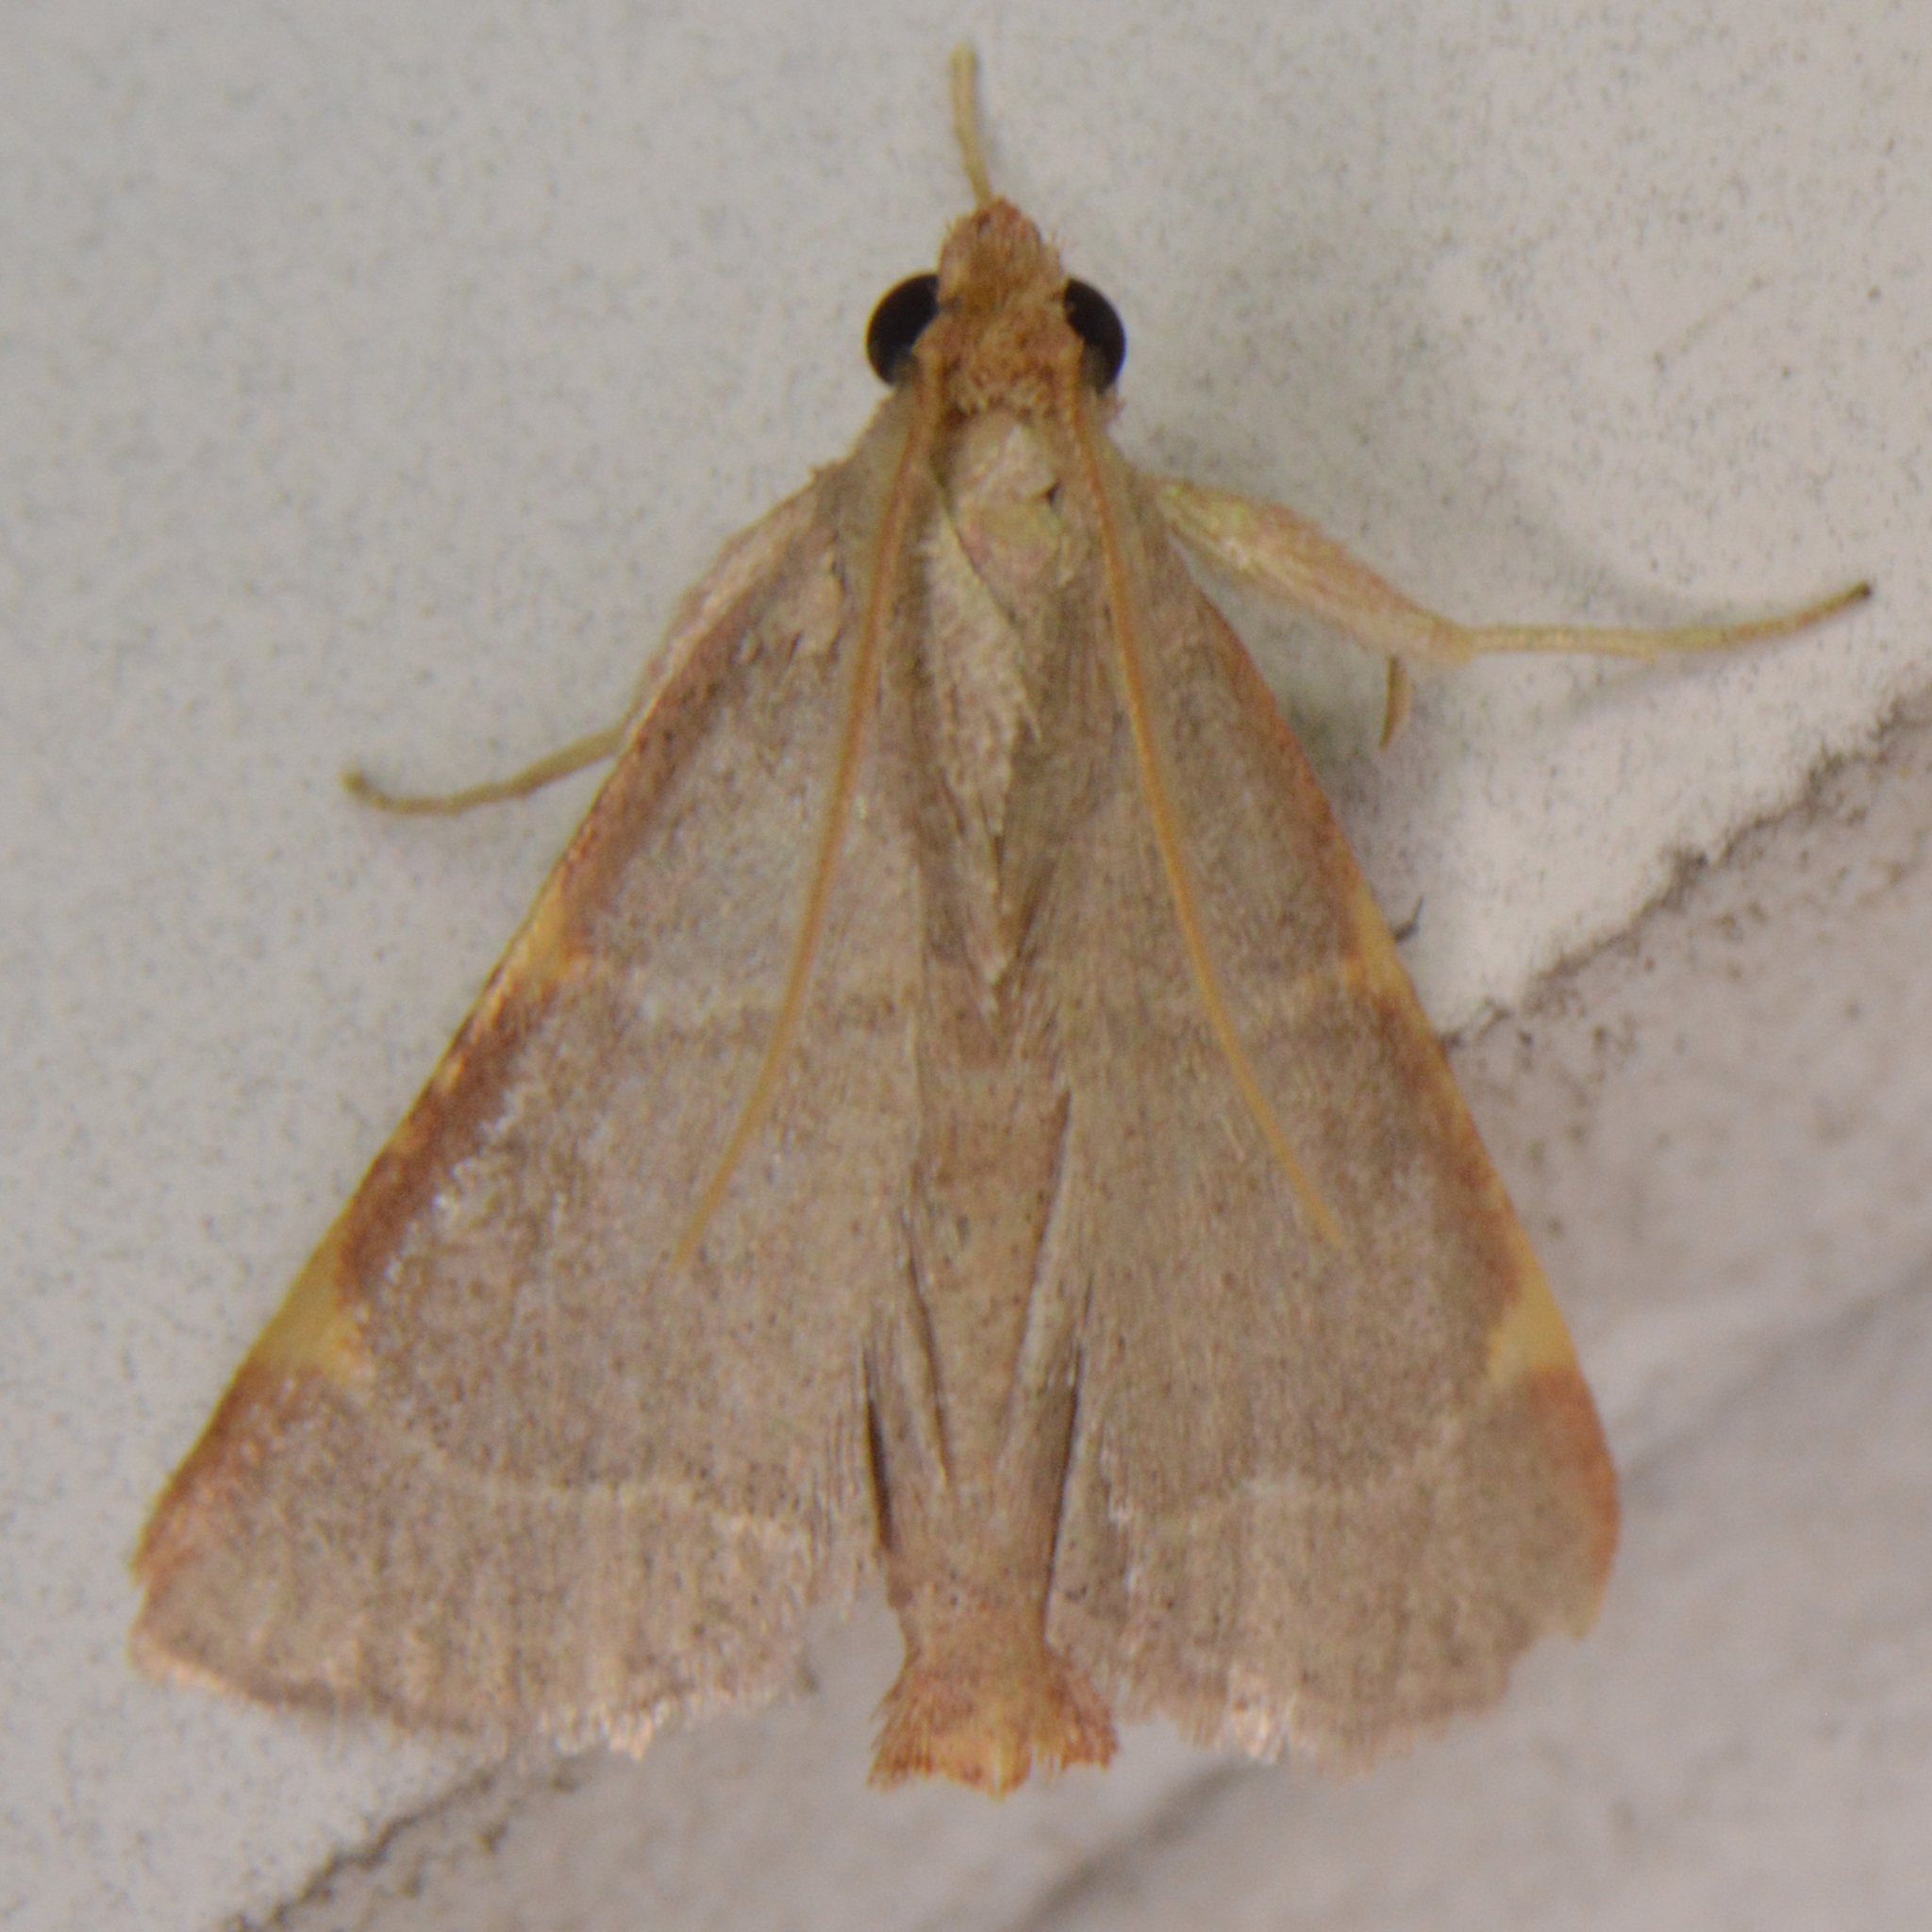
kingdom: Animalia
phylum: Arthropoda
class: Insecta
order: Lepidoptera
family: Pyralidae
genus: Hypsopygia
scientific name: Hypsopygia binodulalis
